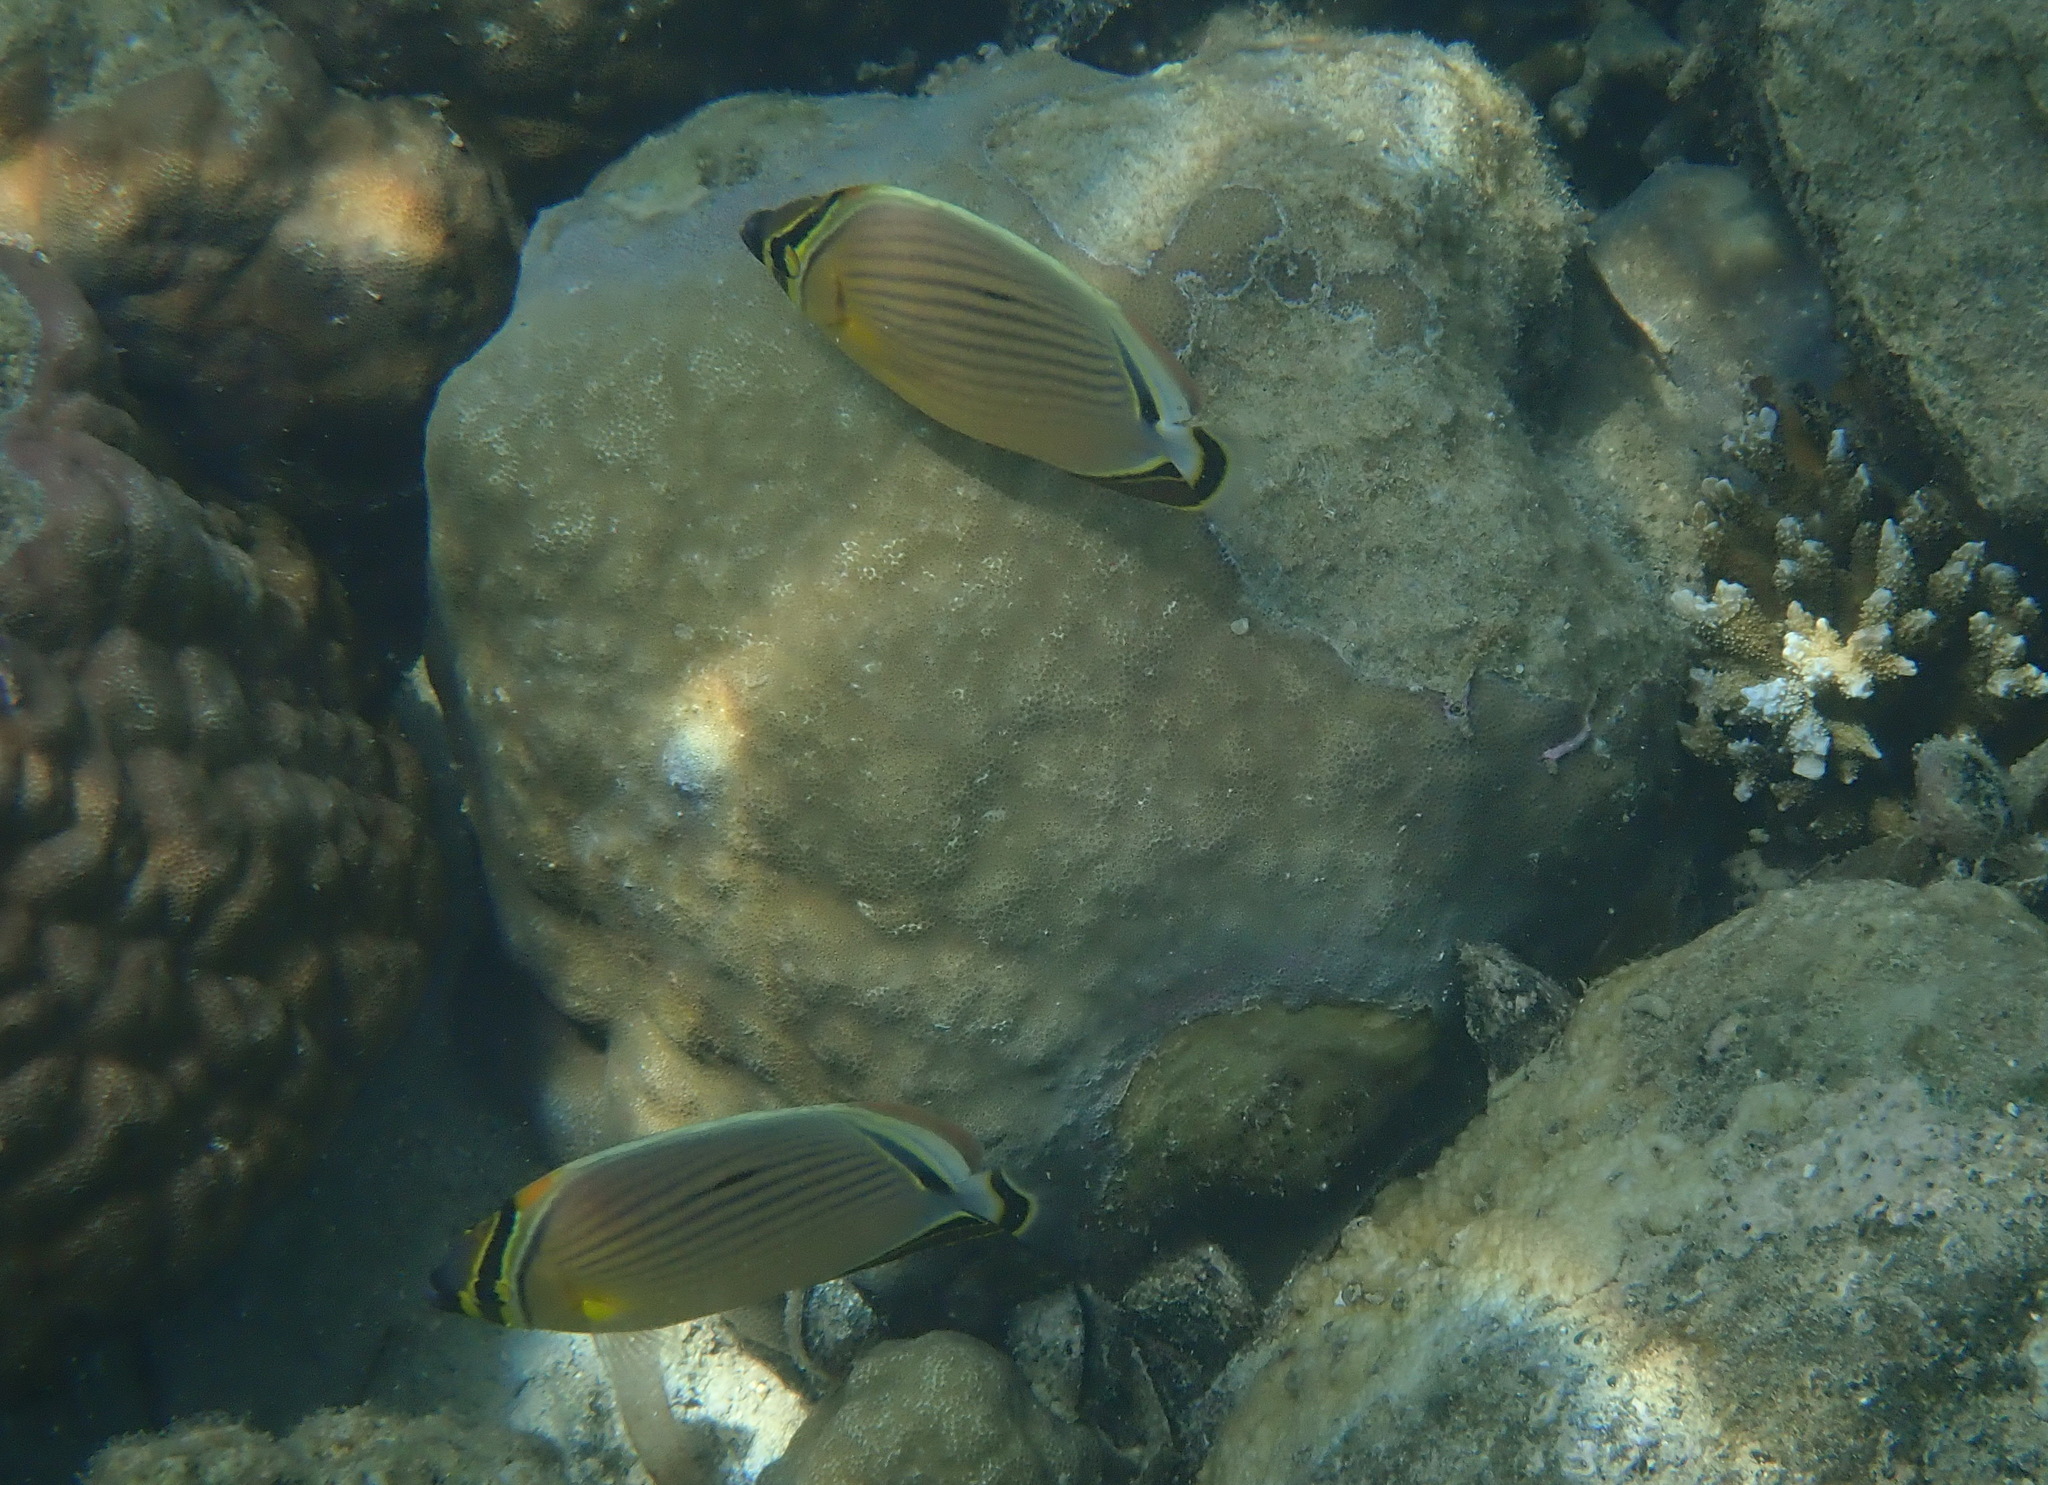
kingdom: Animalia
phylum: Chordata
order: Perciformes
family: Chaetodontidae
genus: Chaetodon
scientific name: Chaetodon lunulatus
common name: Redfin butterflyfish
